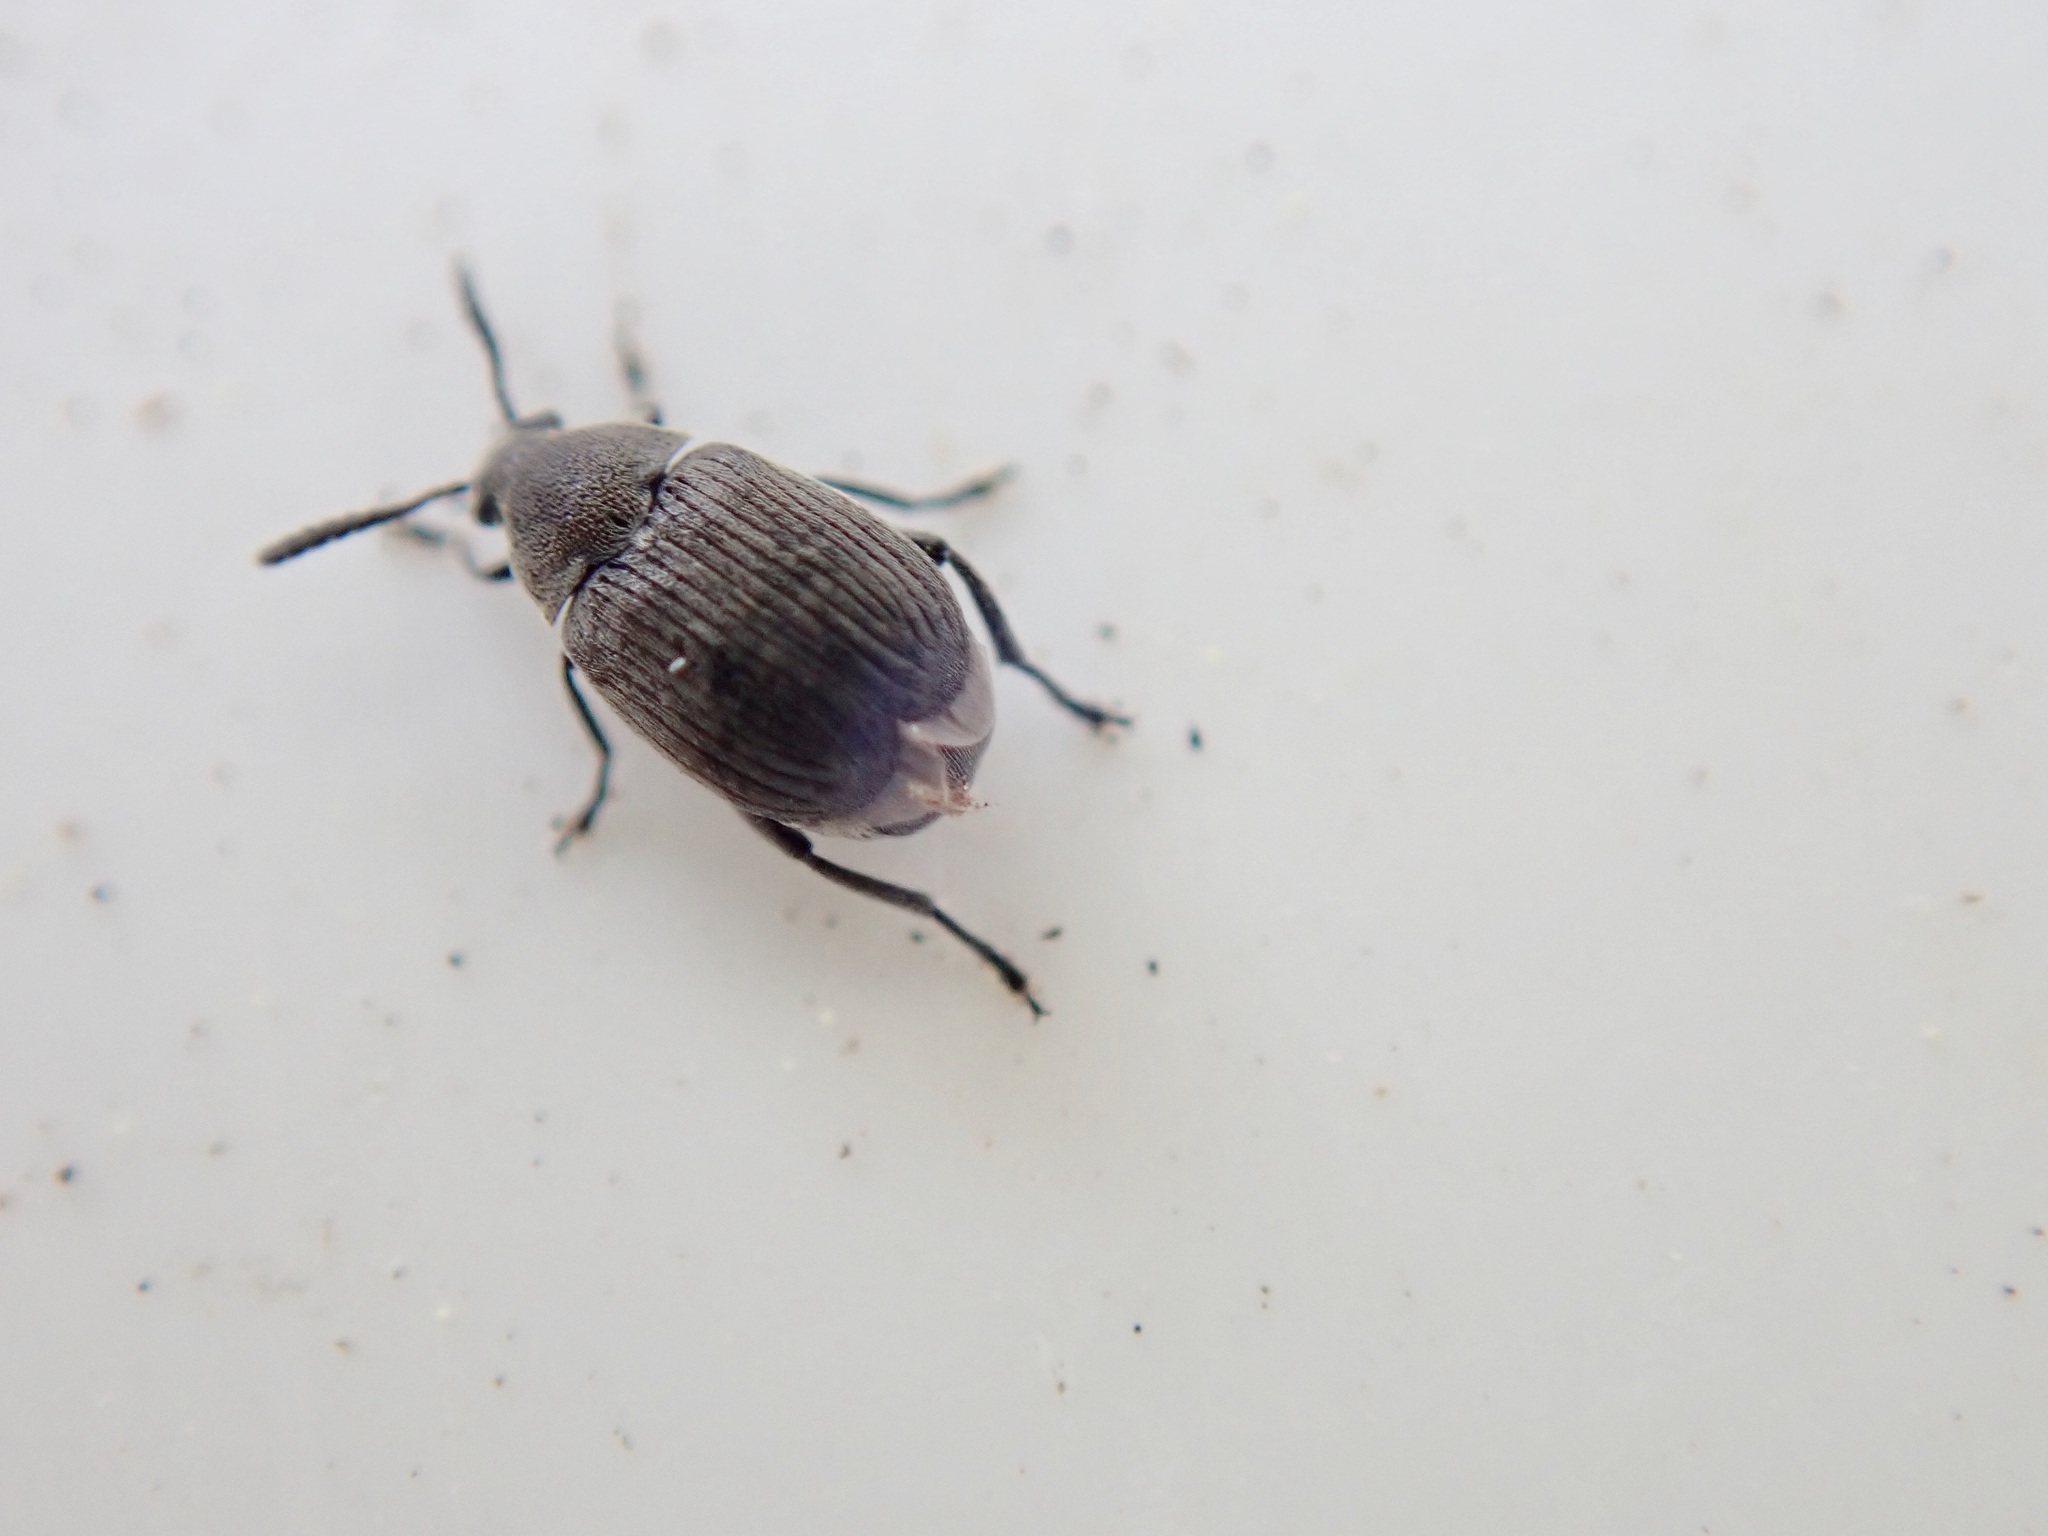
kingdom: Animalia
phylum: Arthropoda
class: Insecta
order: Coleoptera
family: Chrysomelidae
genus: Bruchidius
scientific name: Bruchidius villosus
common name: Scotch broom bruchid
